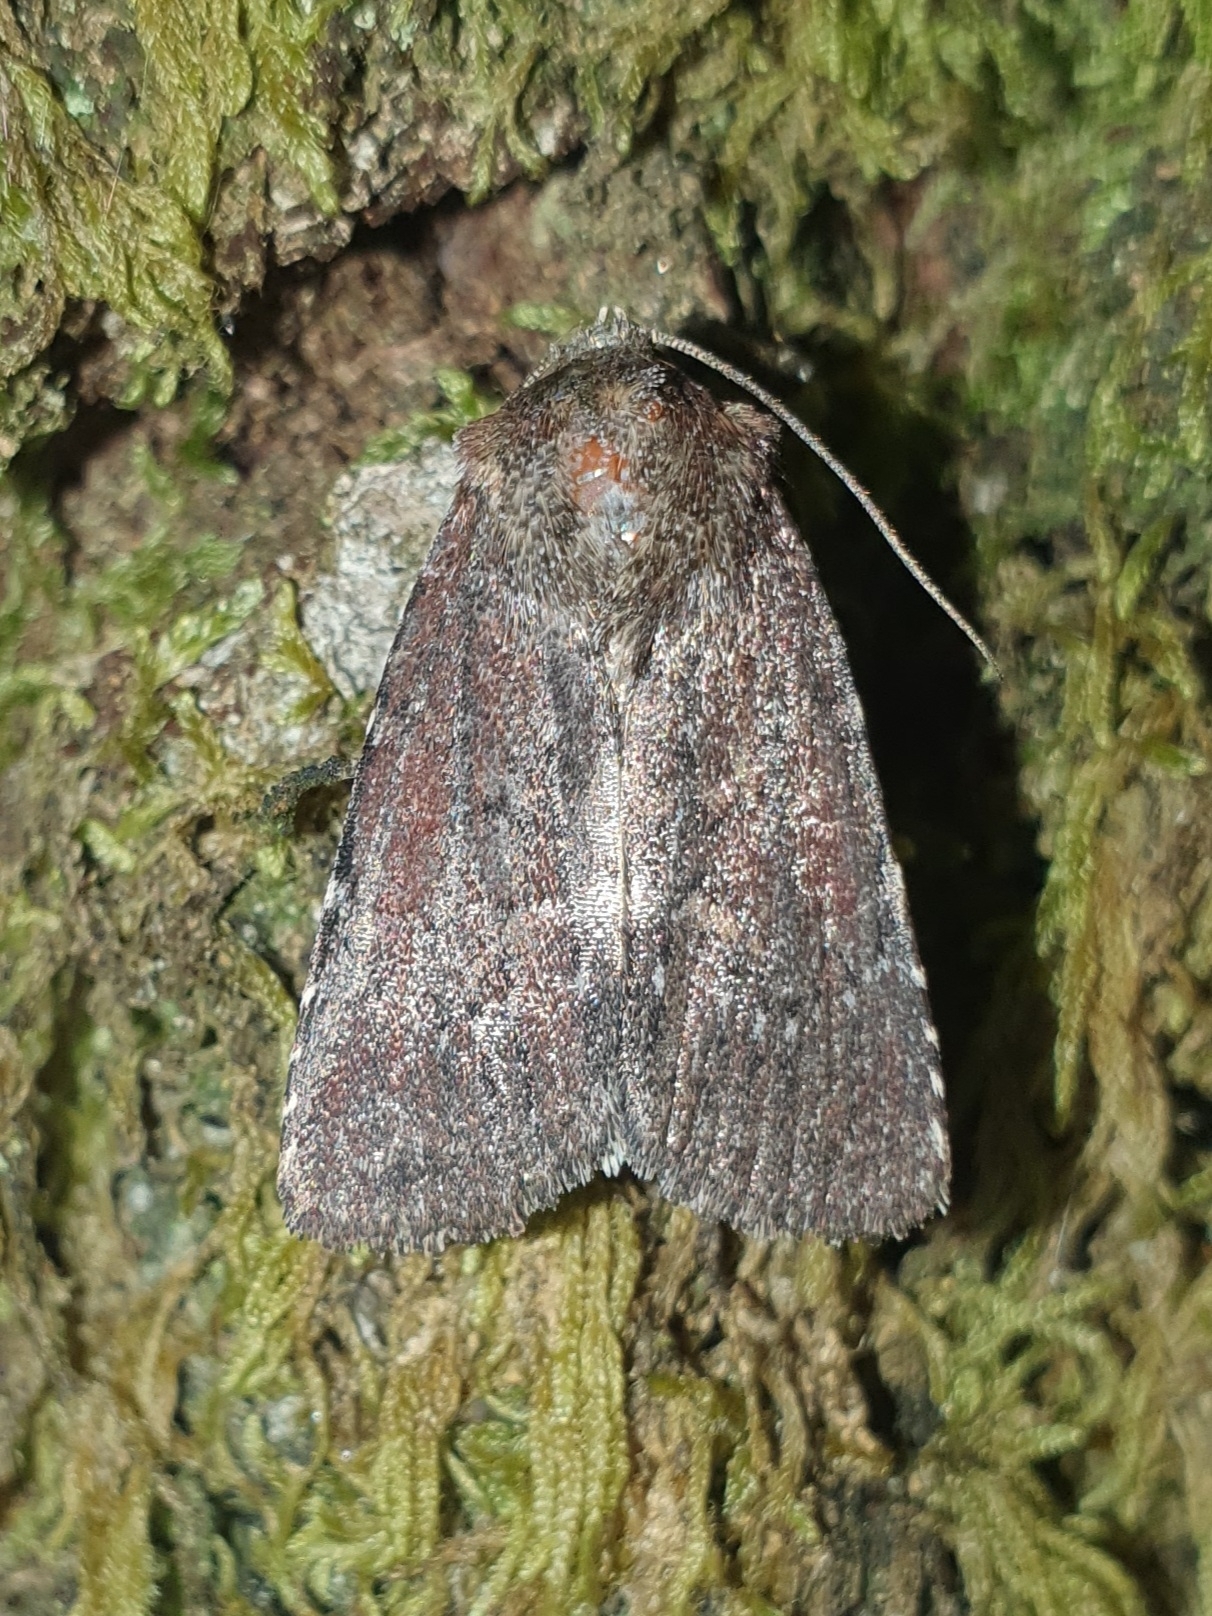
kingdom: Animalia
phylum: Arthropoda
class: Insecta
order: Lepidoptera
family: Noctuidae
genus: Lycophotia
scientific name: Lycophotia erythrina
